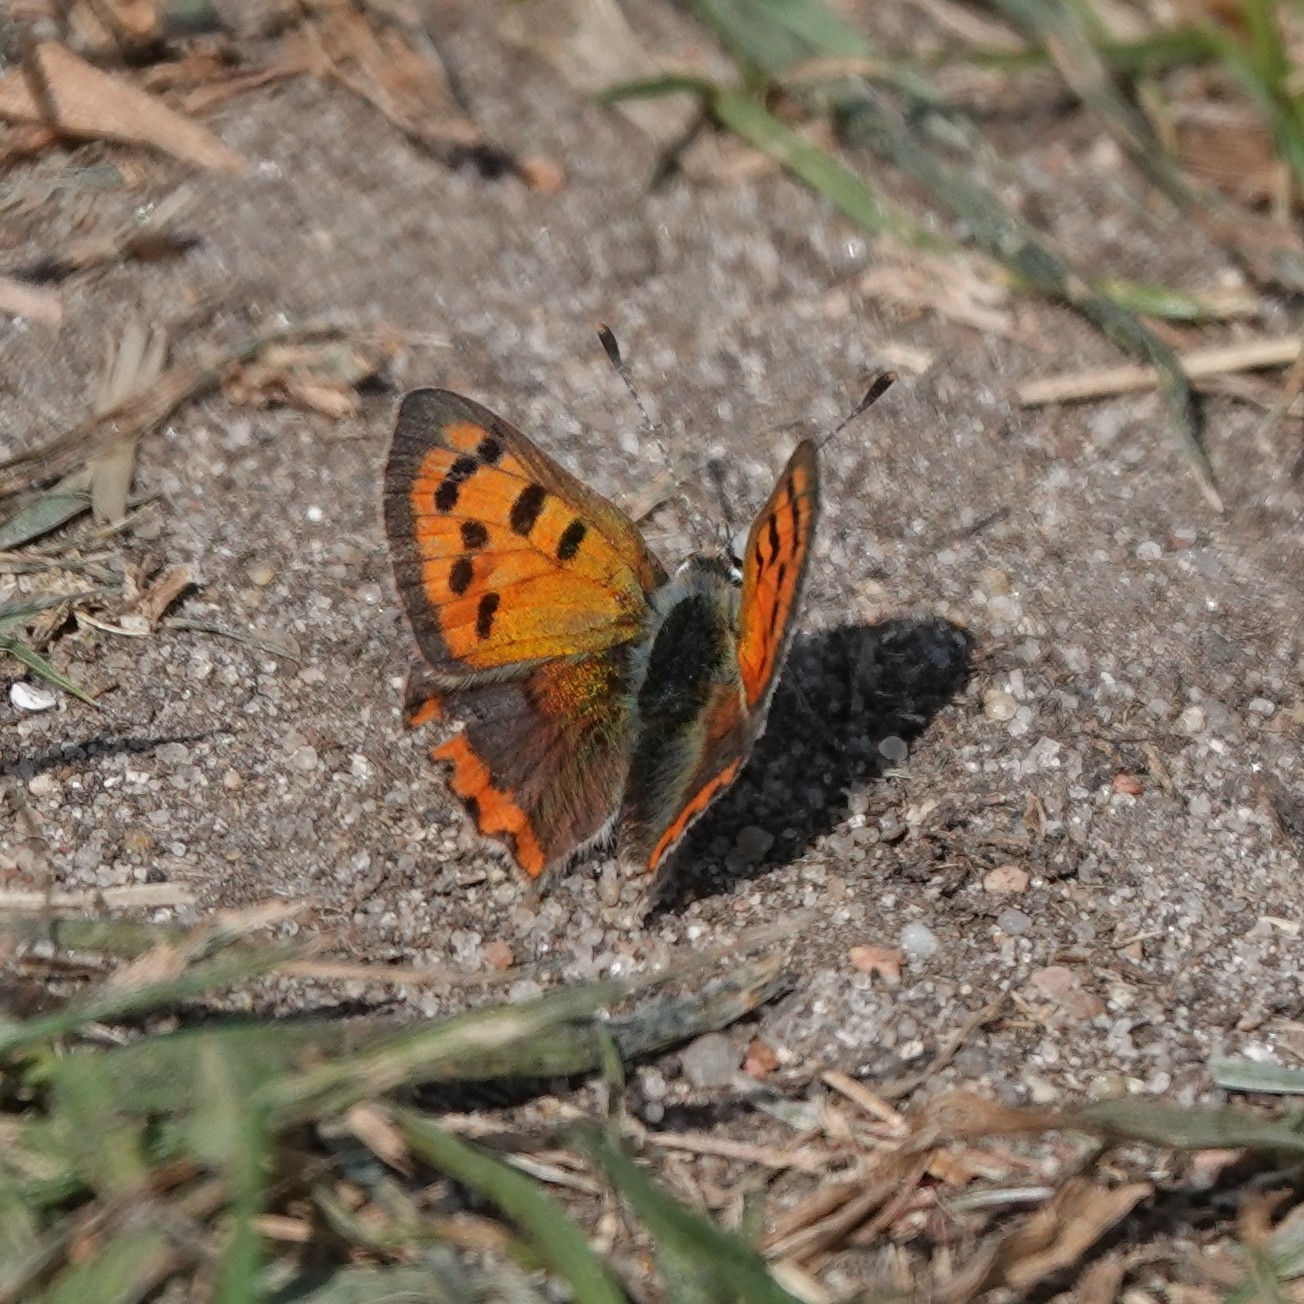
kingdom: Animalia
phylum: Arthropoda
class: Insecta
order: Lepidoptera
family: Lycaenidae
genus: Lycaena
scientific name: Lycaena phlaeas
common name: Small copper
